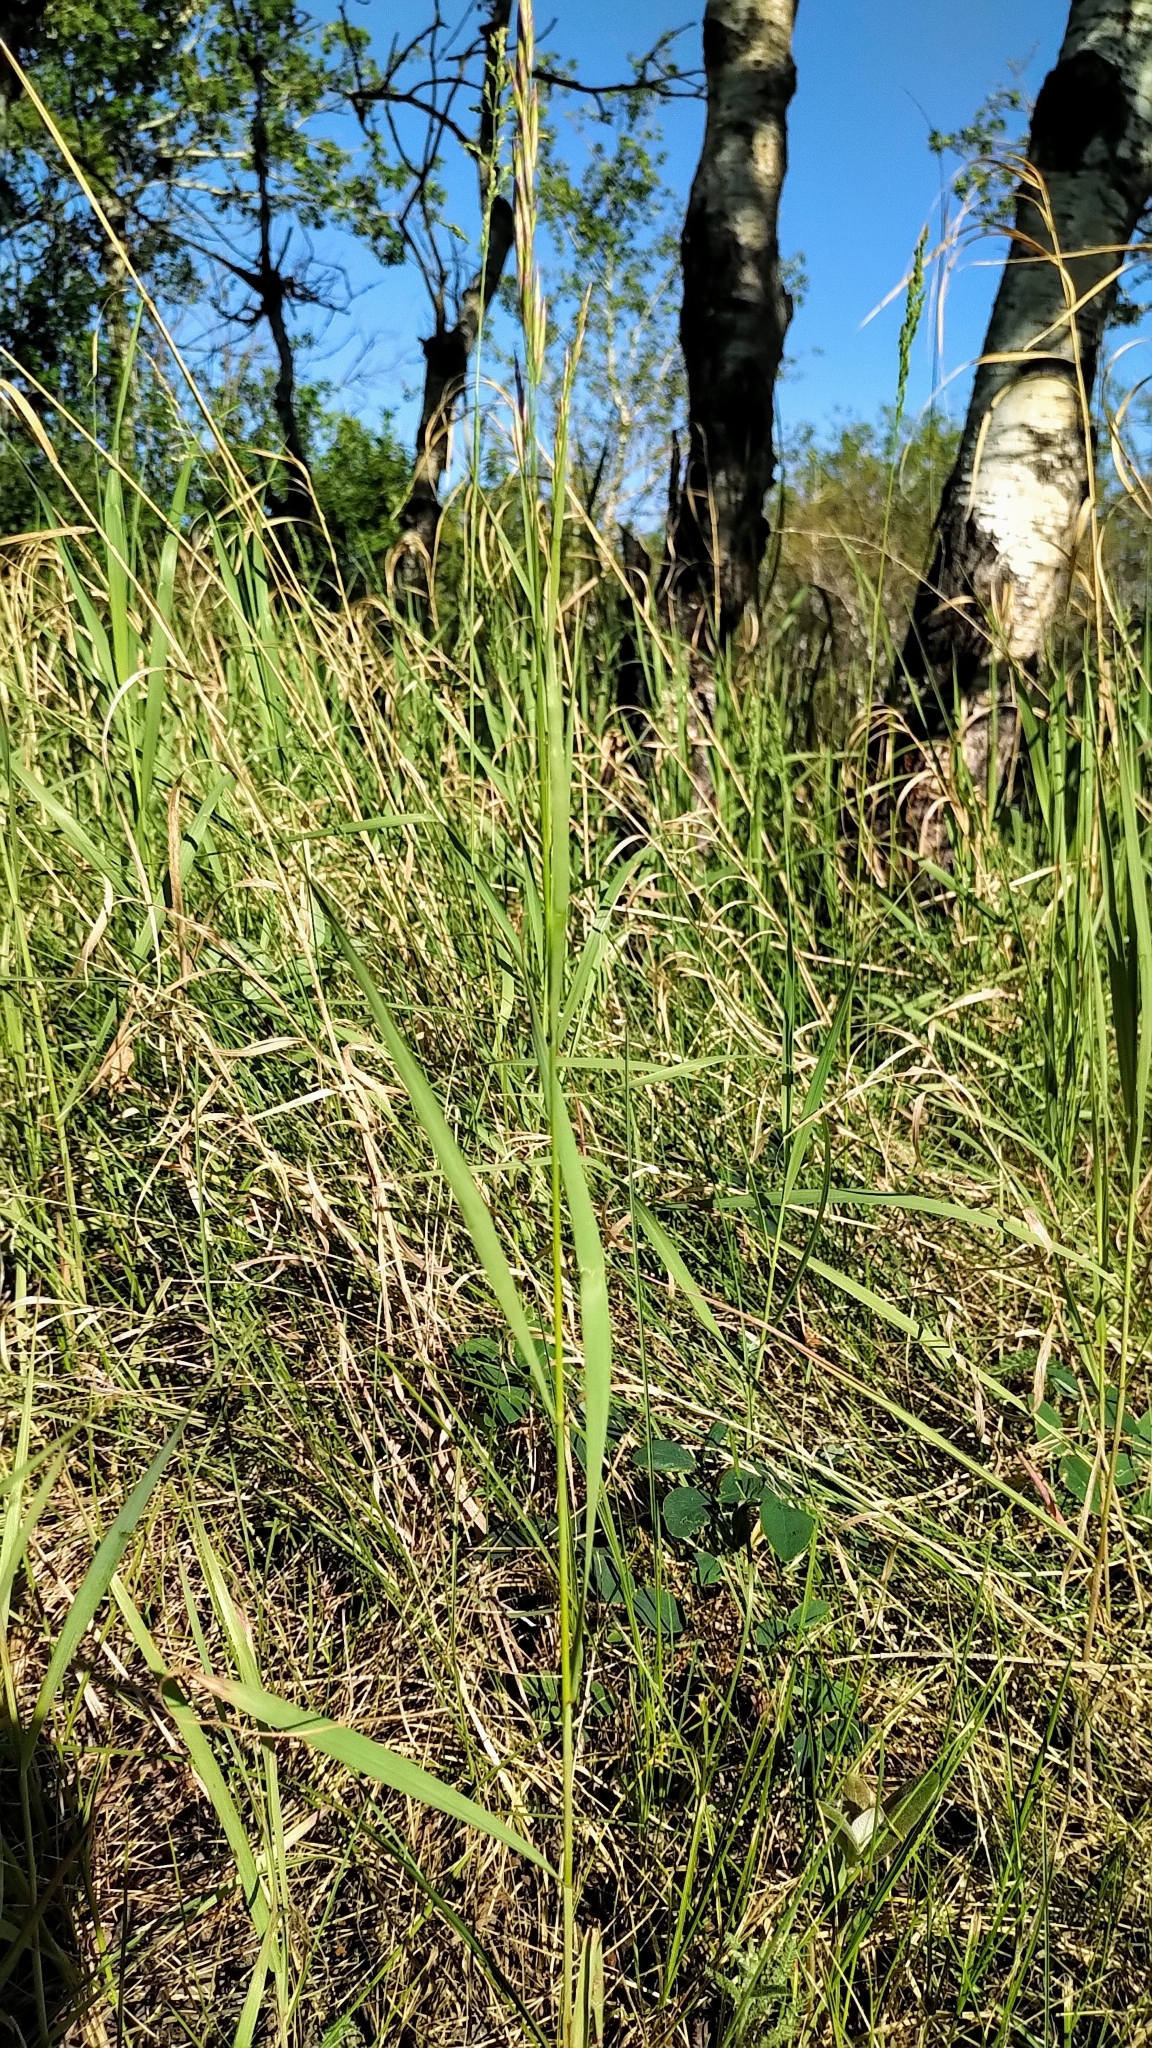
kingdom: Plantae
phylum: Tracheophyta
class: Liliopsida
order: Poales
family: Poaceae
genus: Bromus
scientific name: Bromus inermis
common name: Smooth brome
